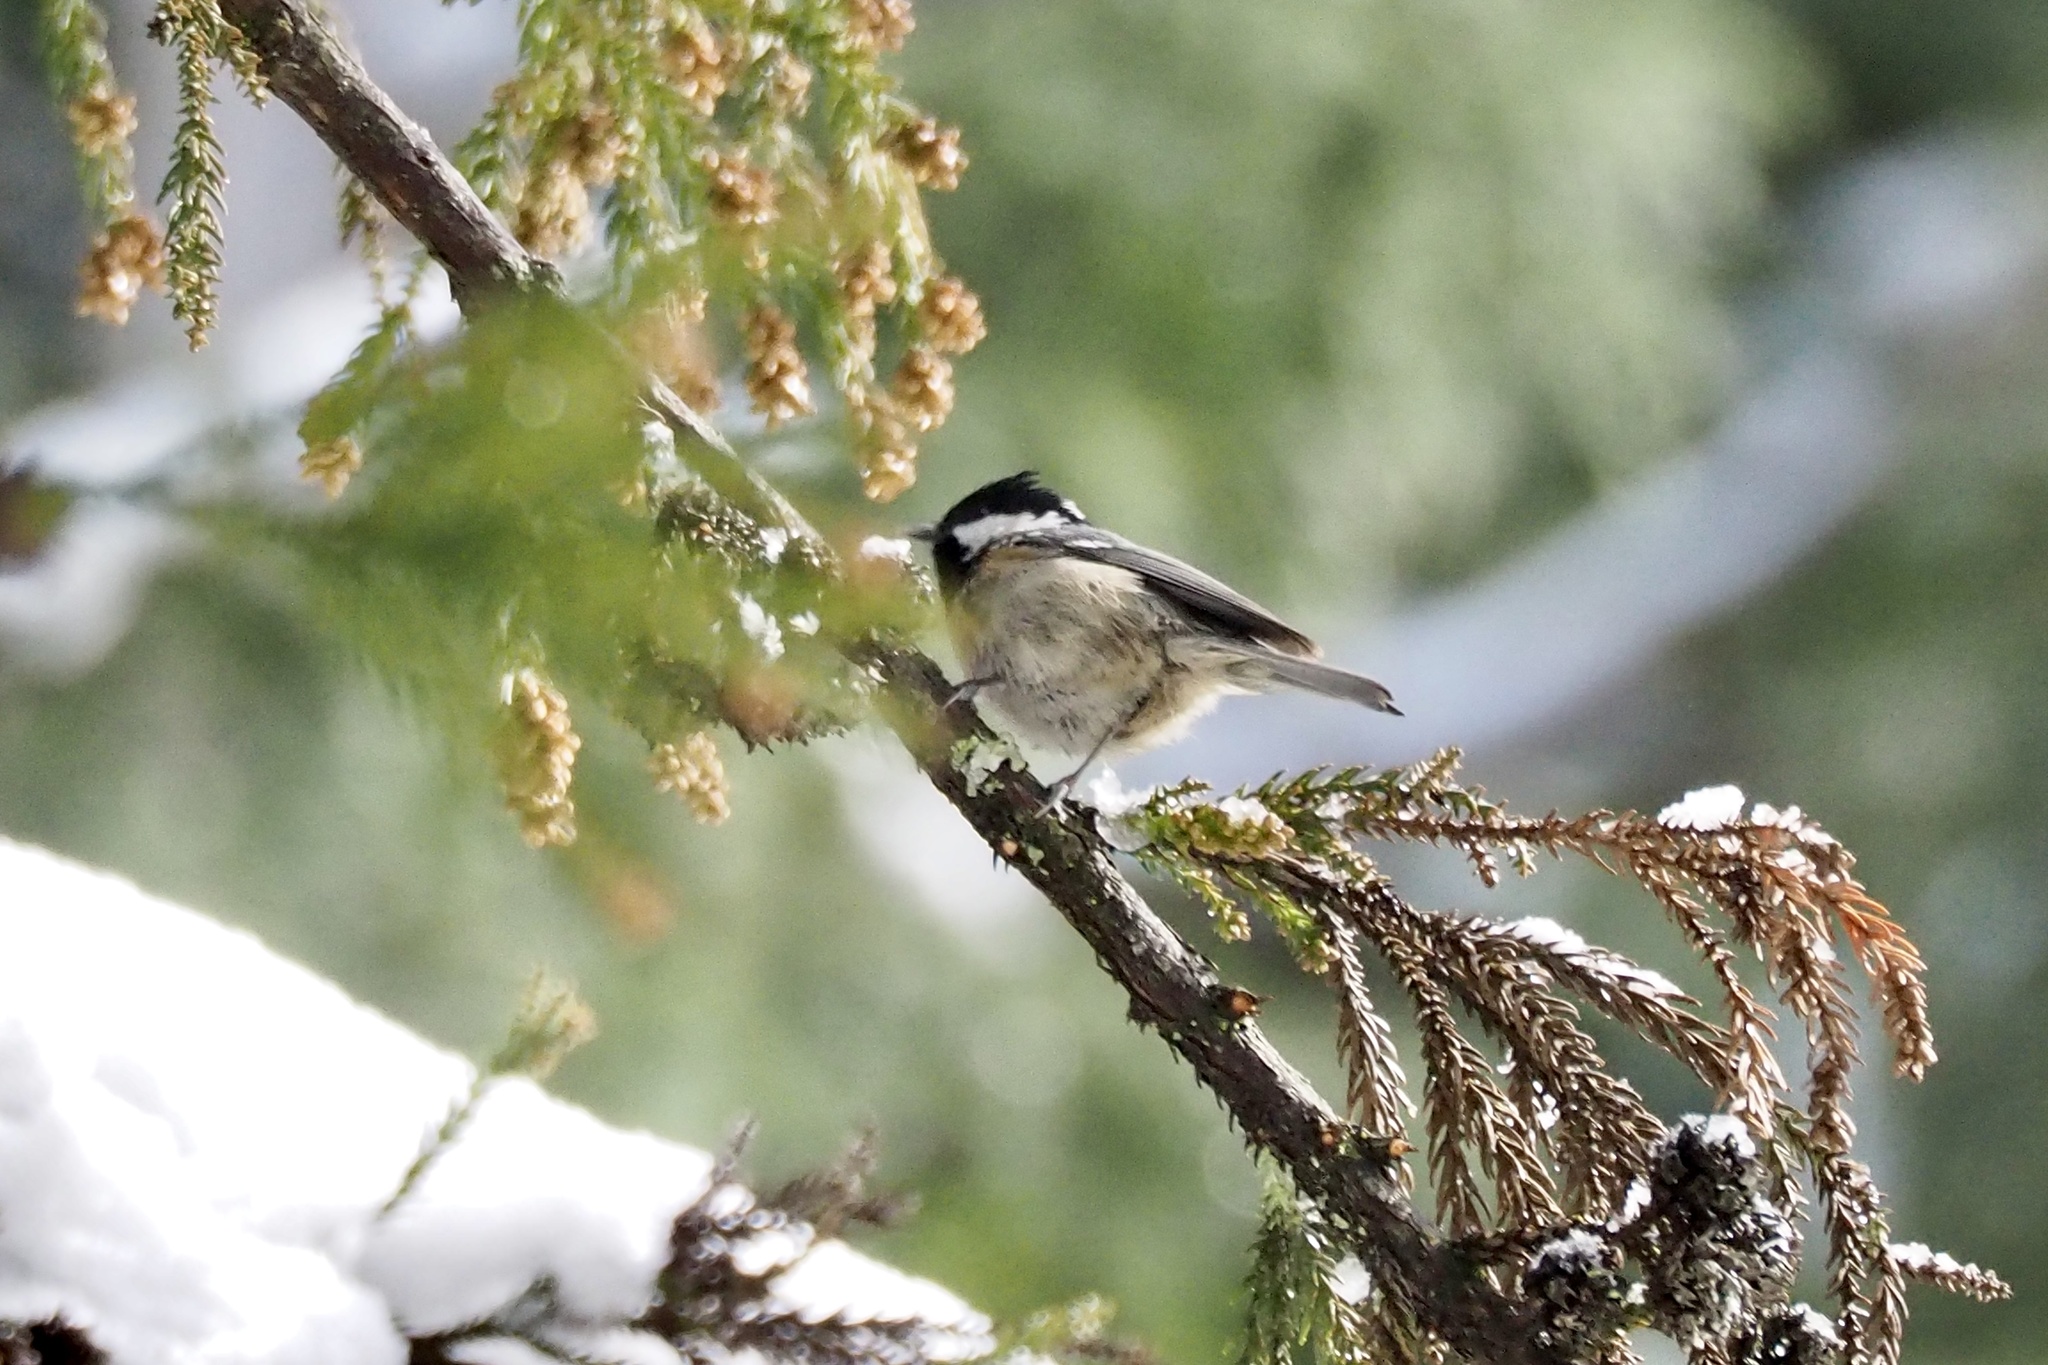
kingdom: Animalia
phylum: Chordata
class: Aves
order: Passeriformes
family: Paridae
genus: Periparus
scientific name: Periparus ater
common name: Coal tit
